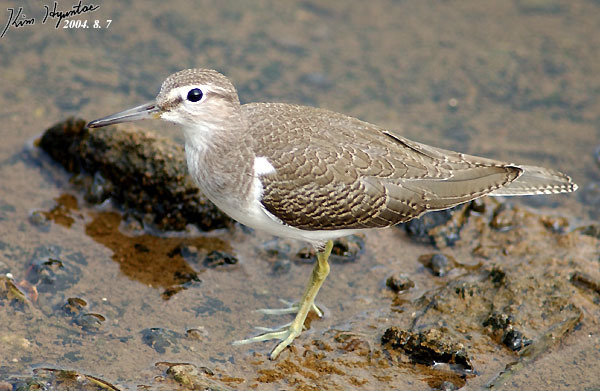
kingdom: Animalia
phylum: Chordata
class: Aves
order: Charadriiformes
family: Scolopacidae
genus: Actitis
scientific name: Actitis hypoleucos
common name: Common sandpiper
